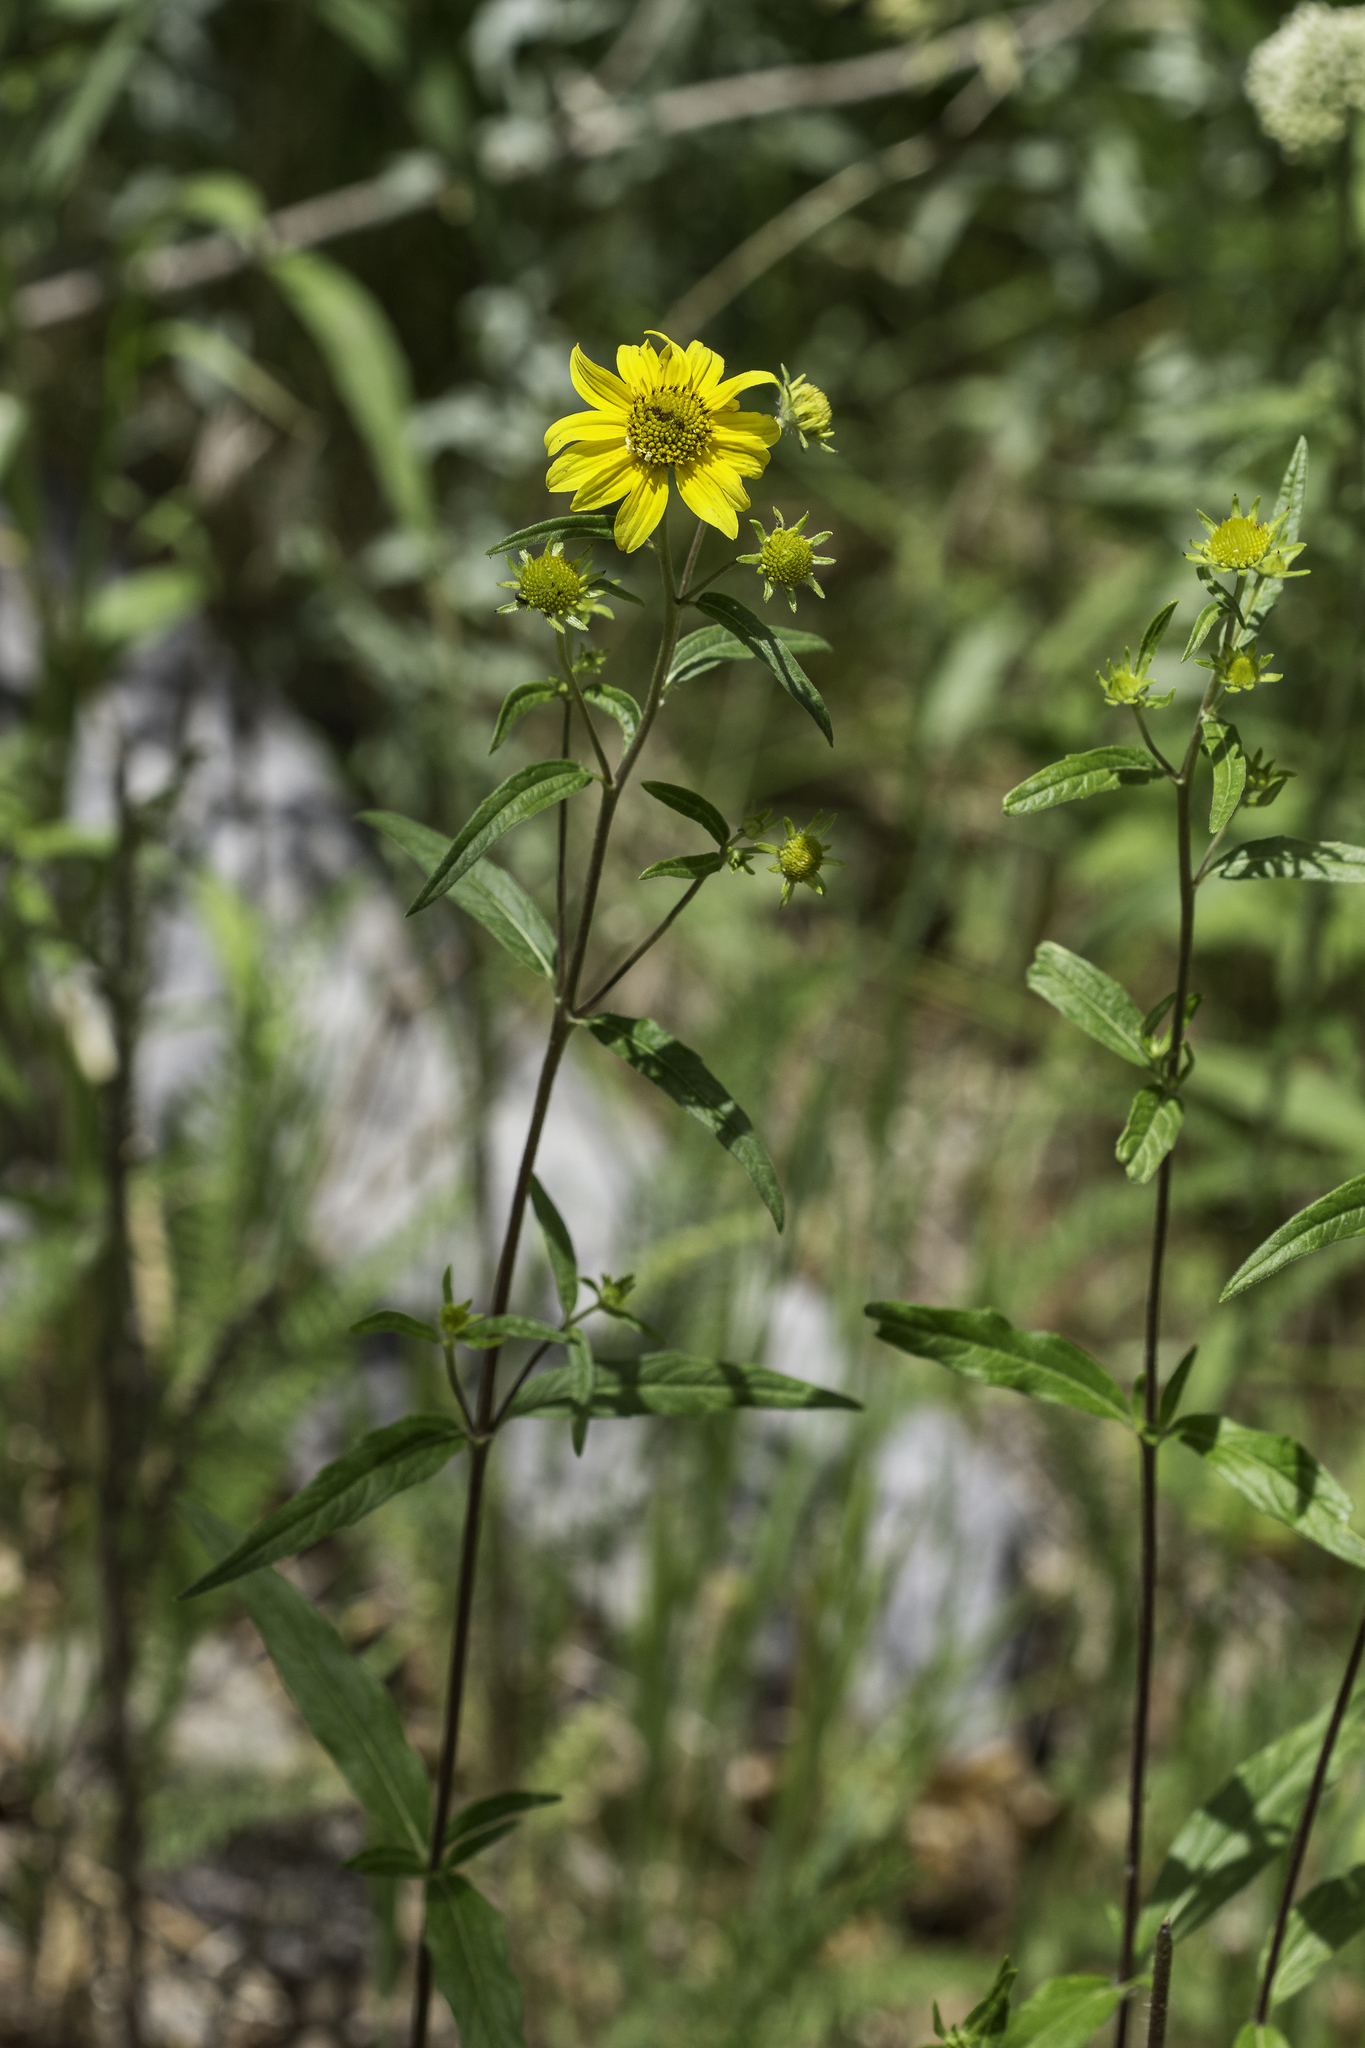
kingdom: Plantae
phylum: Tracheophyta
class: Magnoliopsida
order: Asterales
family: Asteraceae
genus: Heliomeris
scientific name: Heliomeris multiflora
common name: Showy goldeneye
